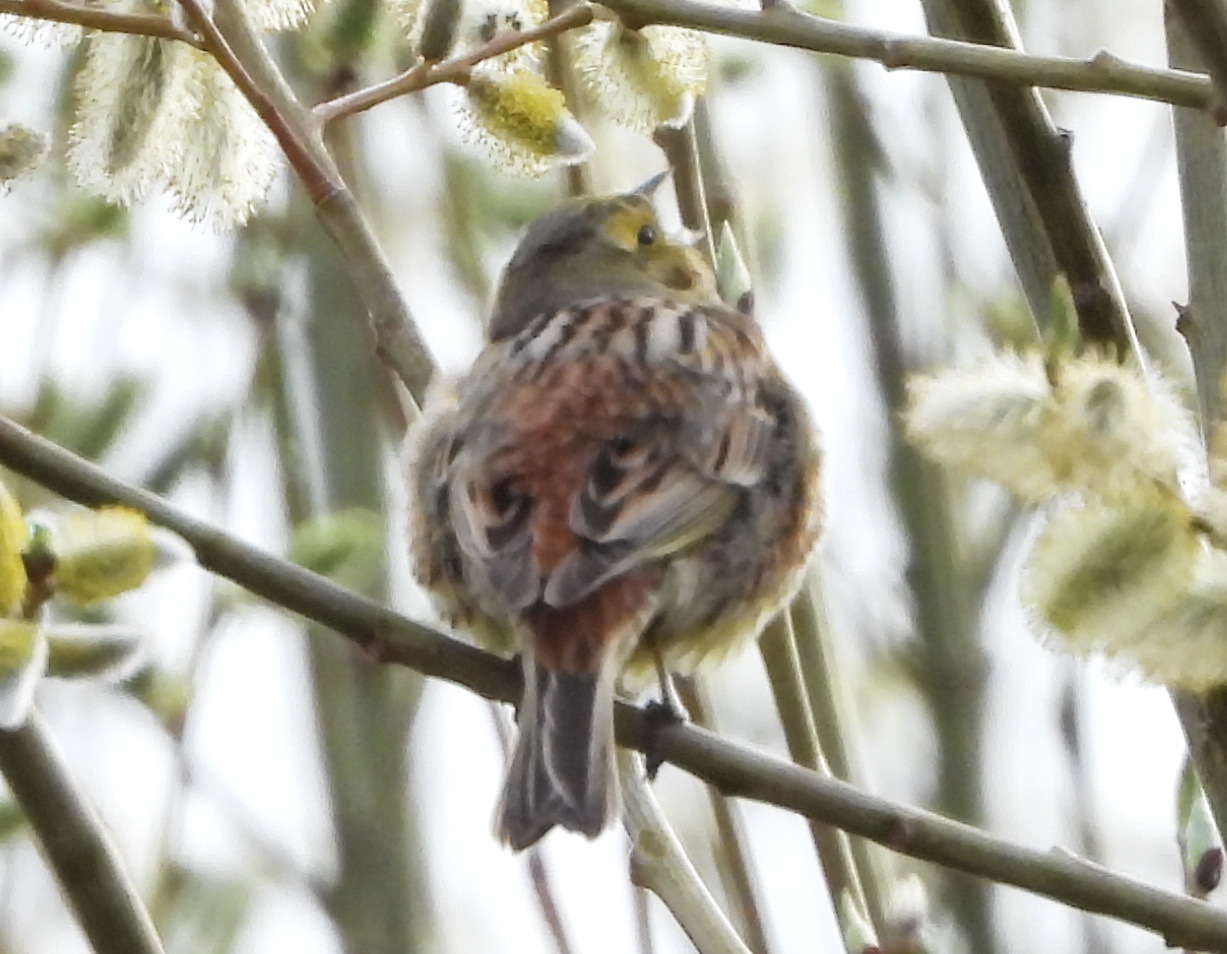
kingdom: Animalia
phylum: Chordata
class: Aves
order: Passeriformes
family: Emberizidae
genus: Emberiza
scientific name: Emberiza citrinella
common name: Yellowhammer
